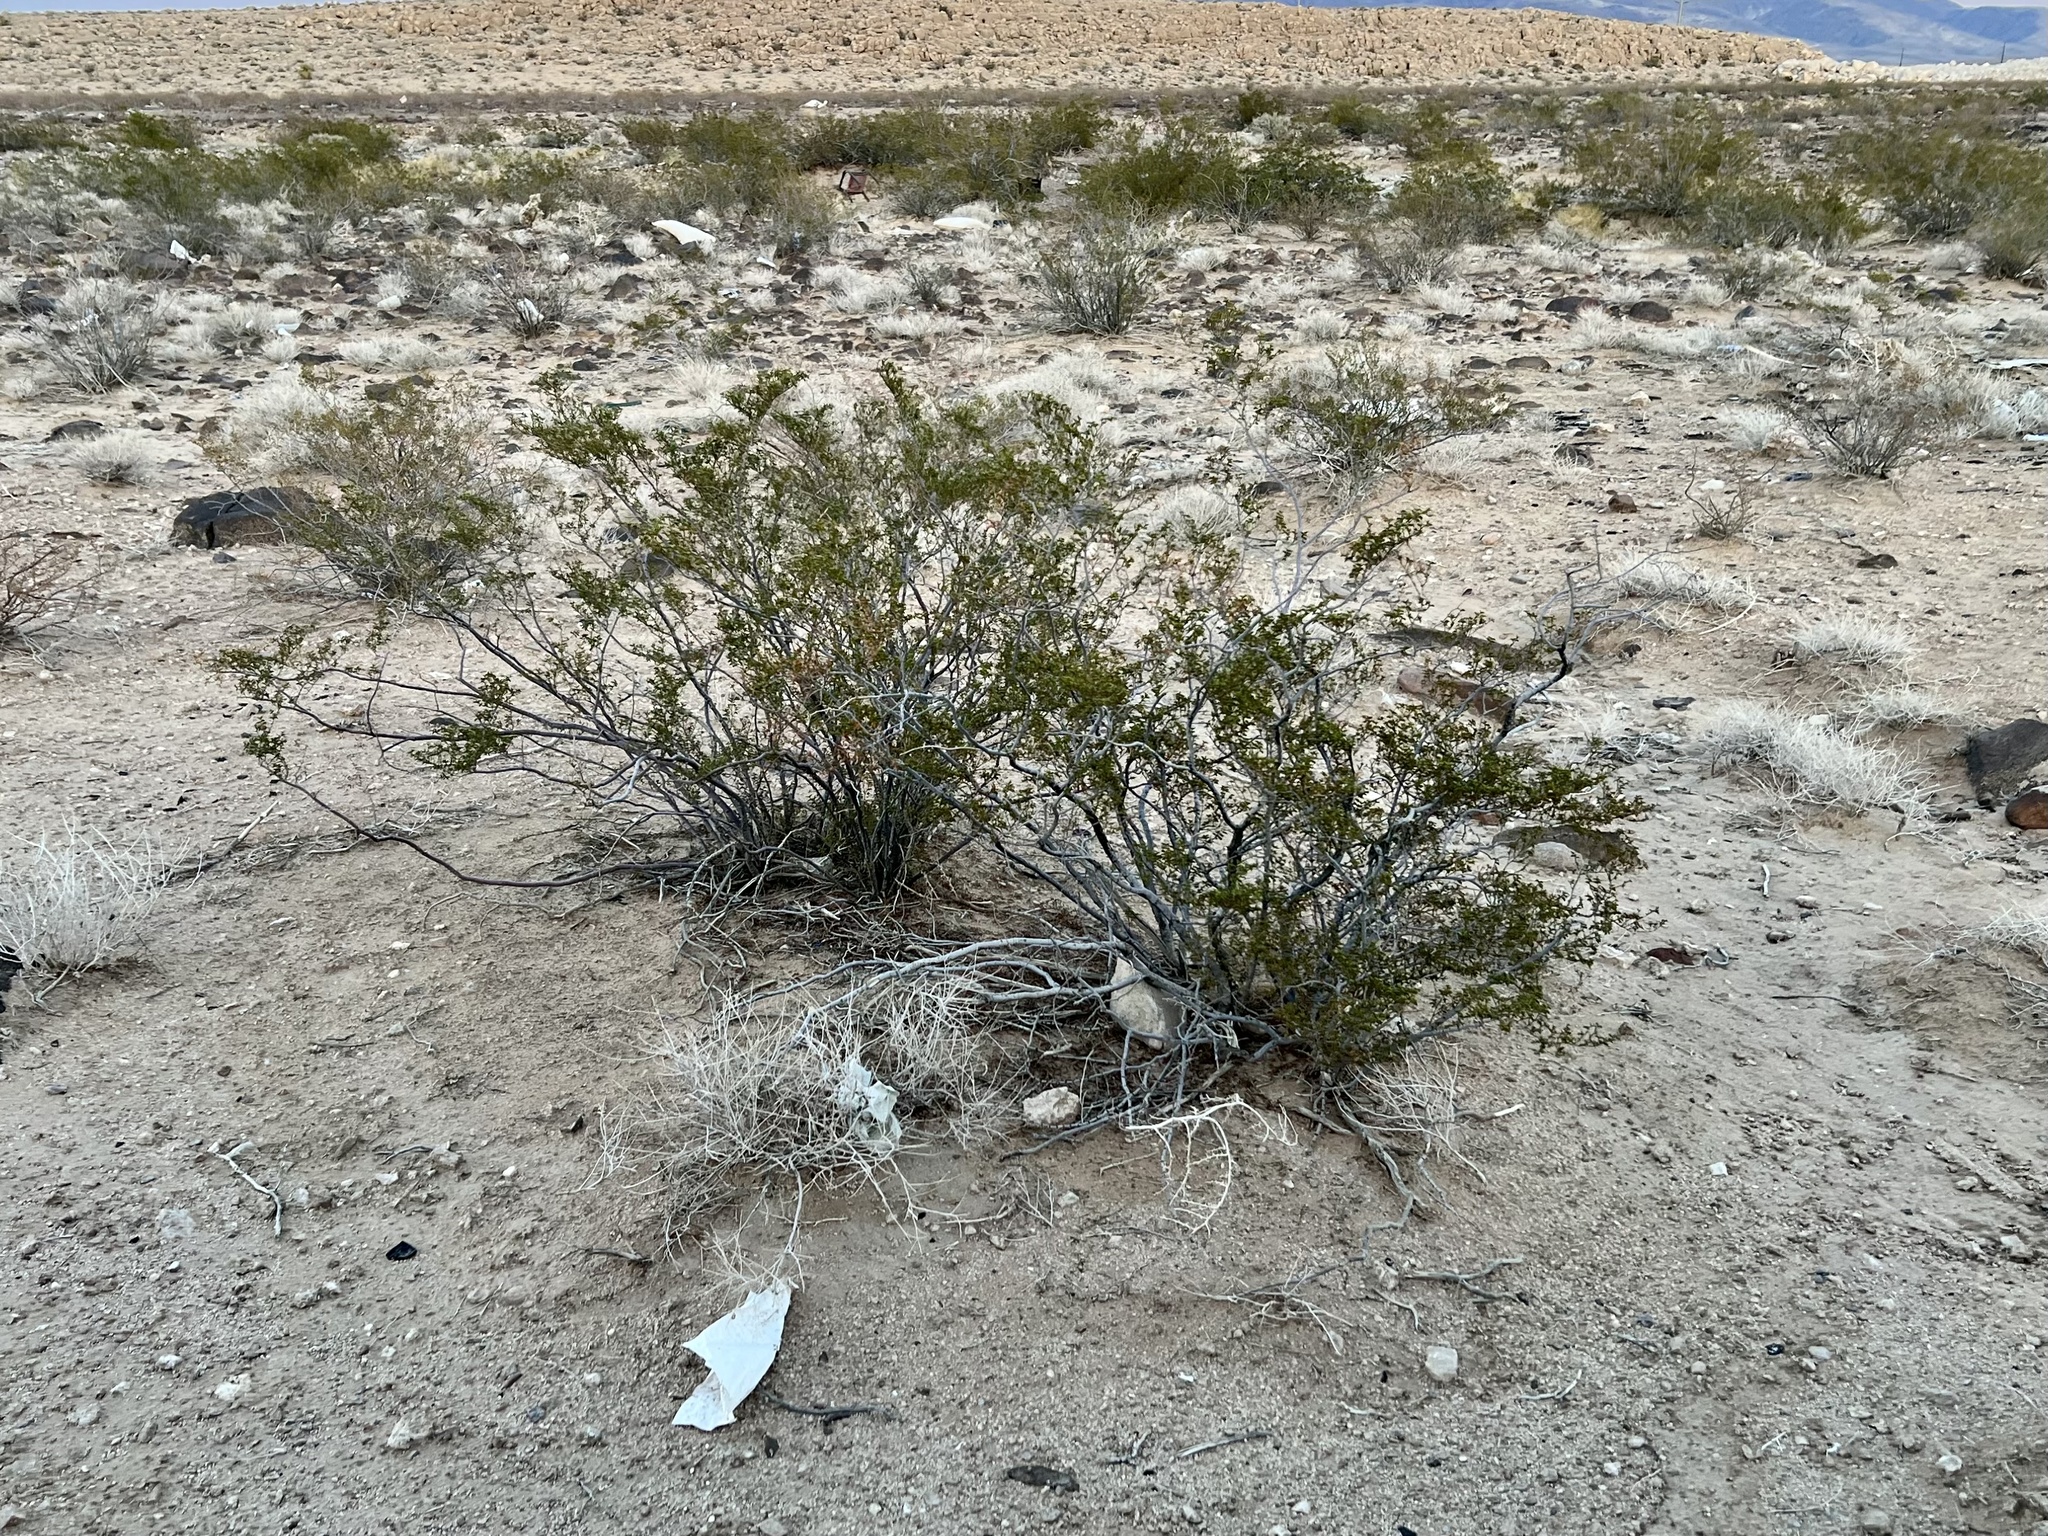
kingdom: Plantae
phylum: Tracheophyta
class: Magnoliopsida
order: Zygophyllales
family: Zygophyllaceae
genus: Larrea
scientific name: Larrea tridentata
